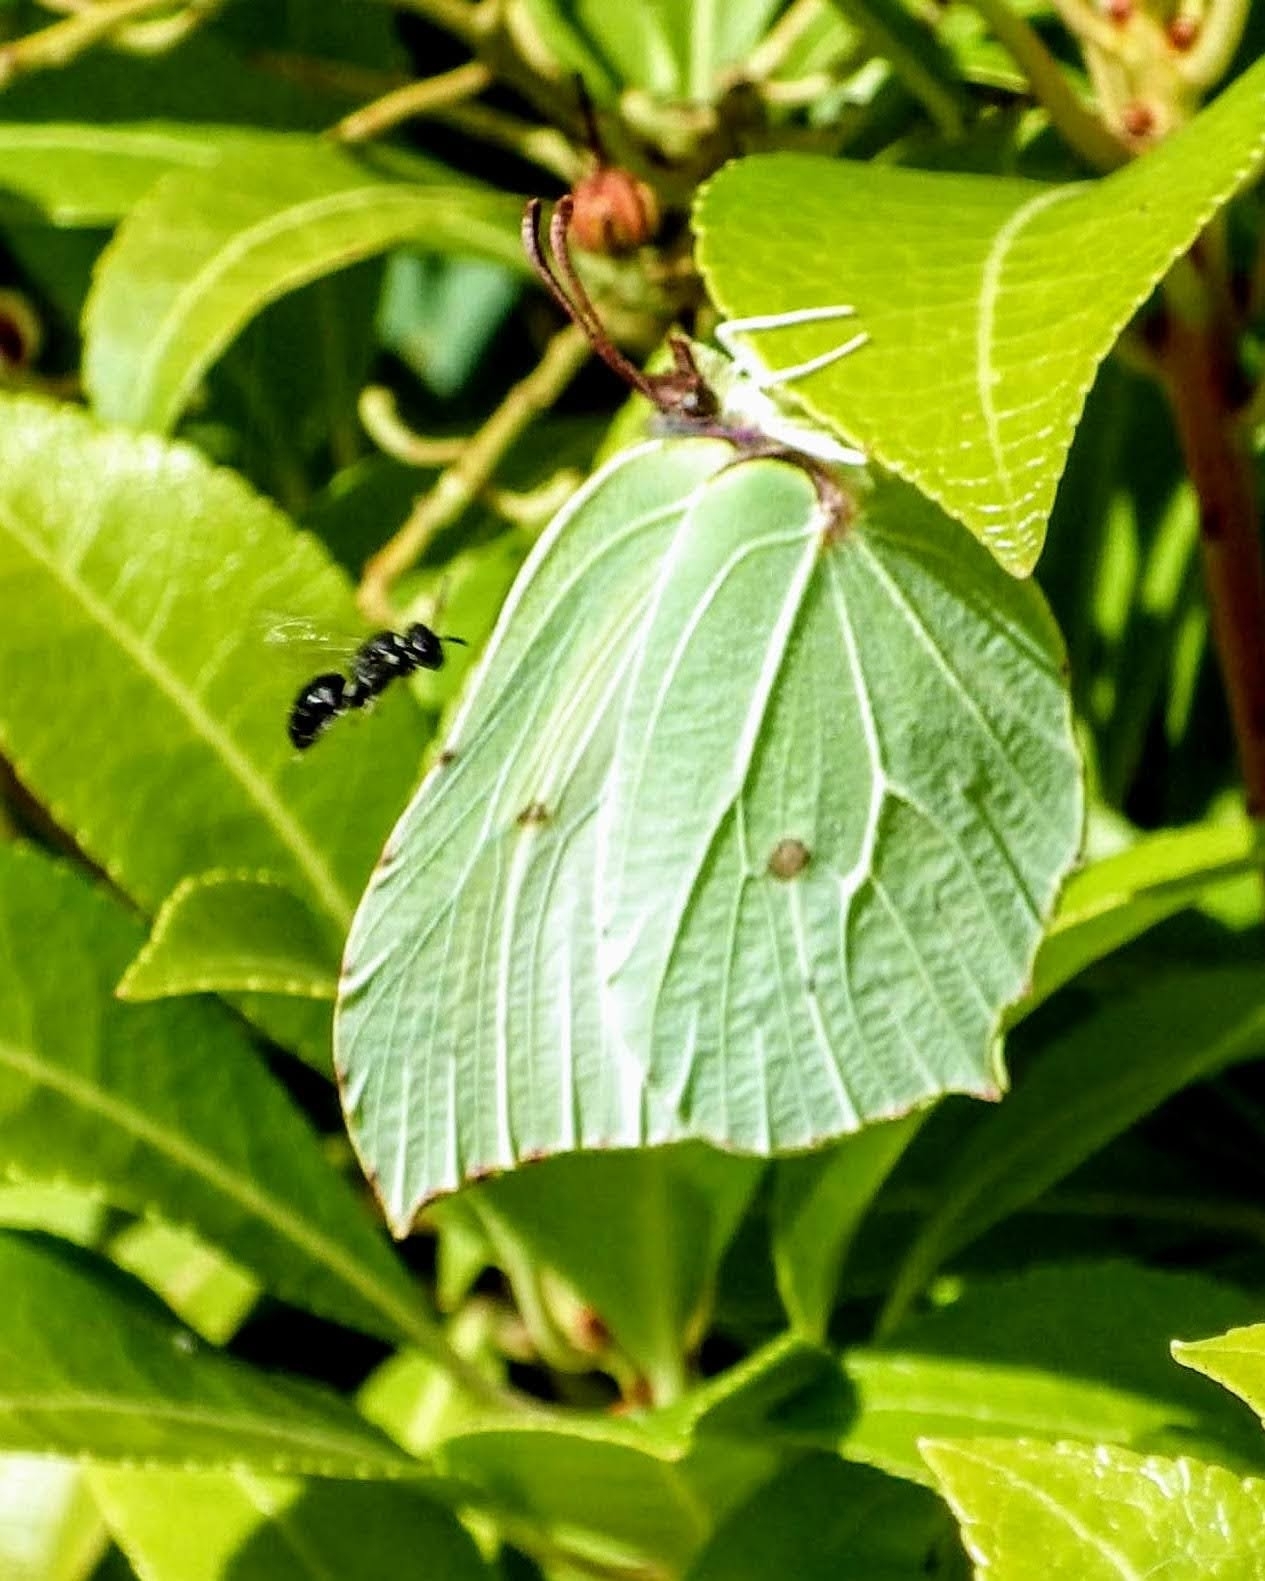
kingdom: Animalia
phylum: Arthropoda
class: Insecta
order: Lepidoptera
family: Pieridae
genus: Gonepteryx
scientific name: Gonepteryx rhamni
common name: Brimstone
